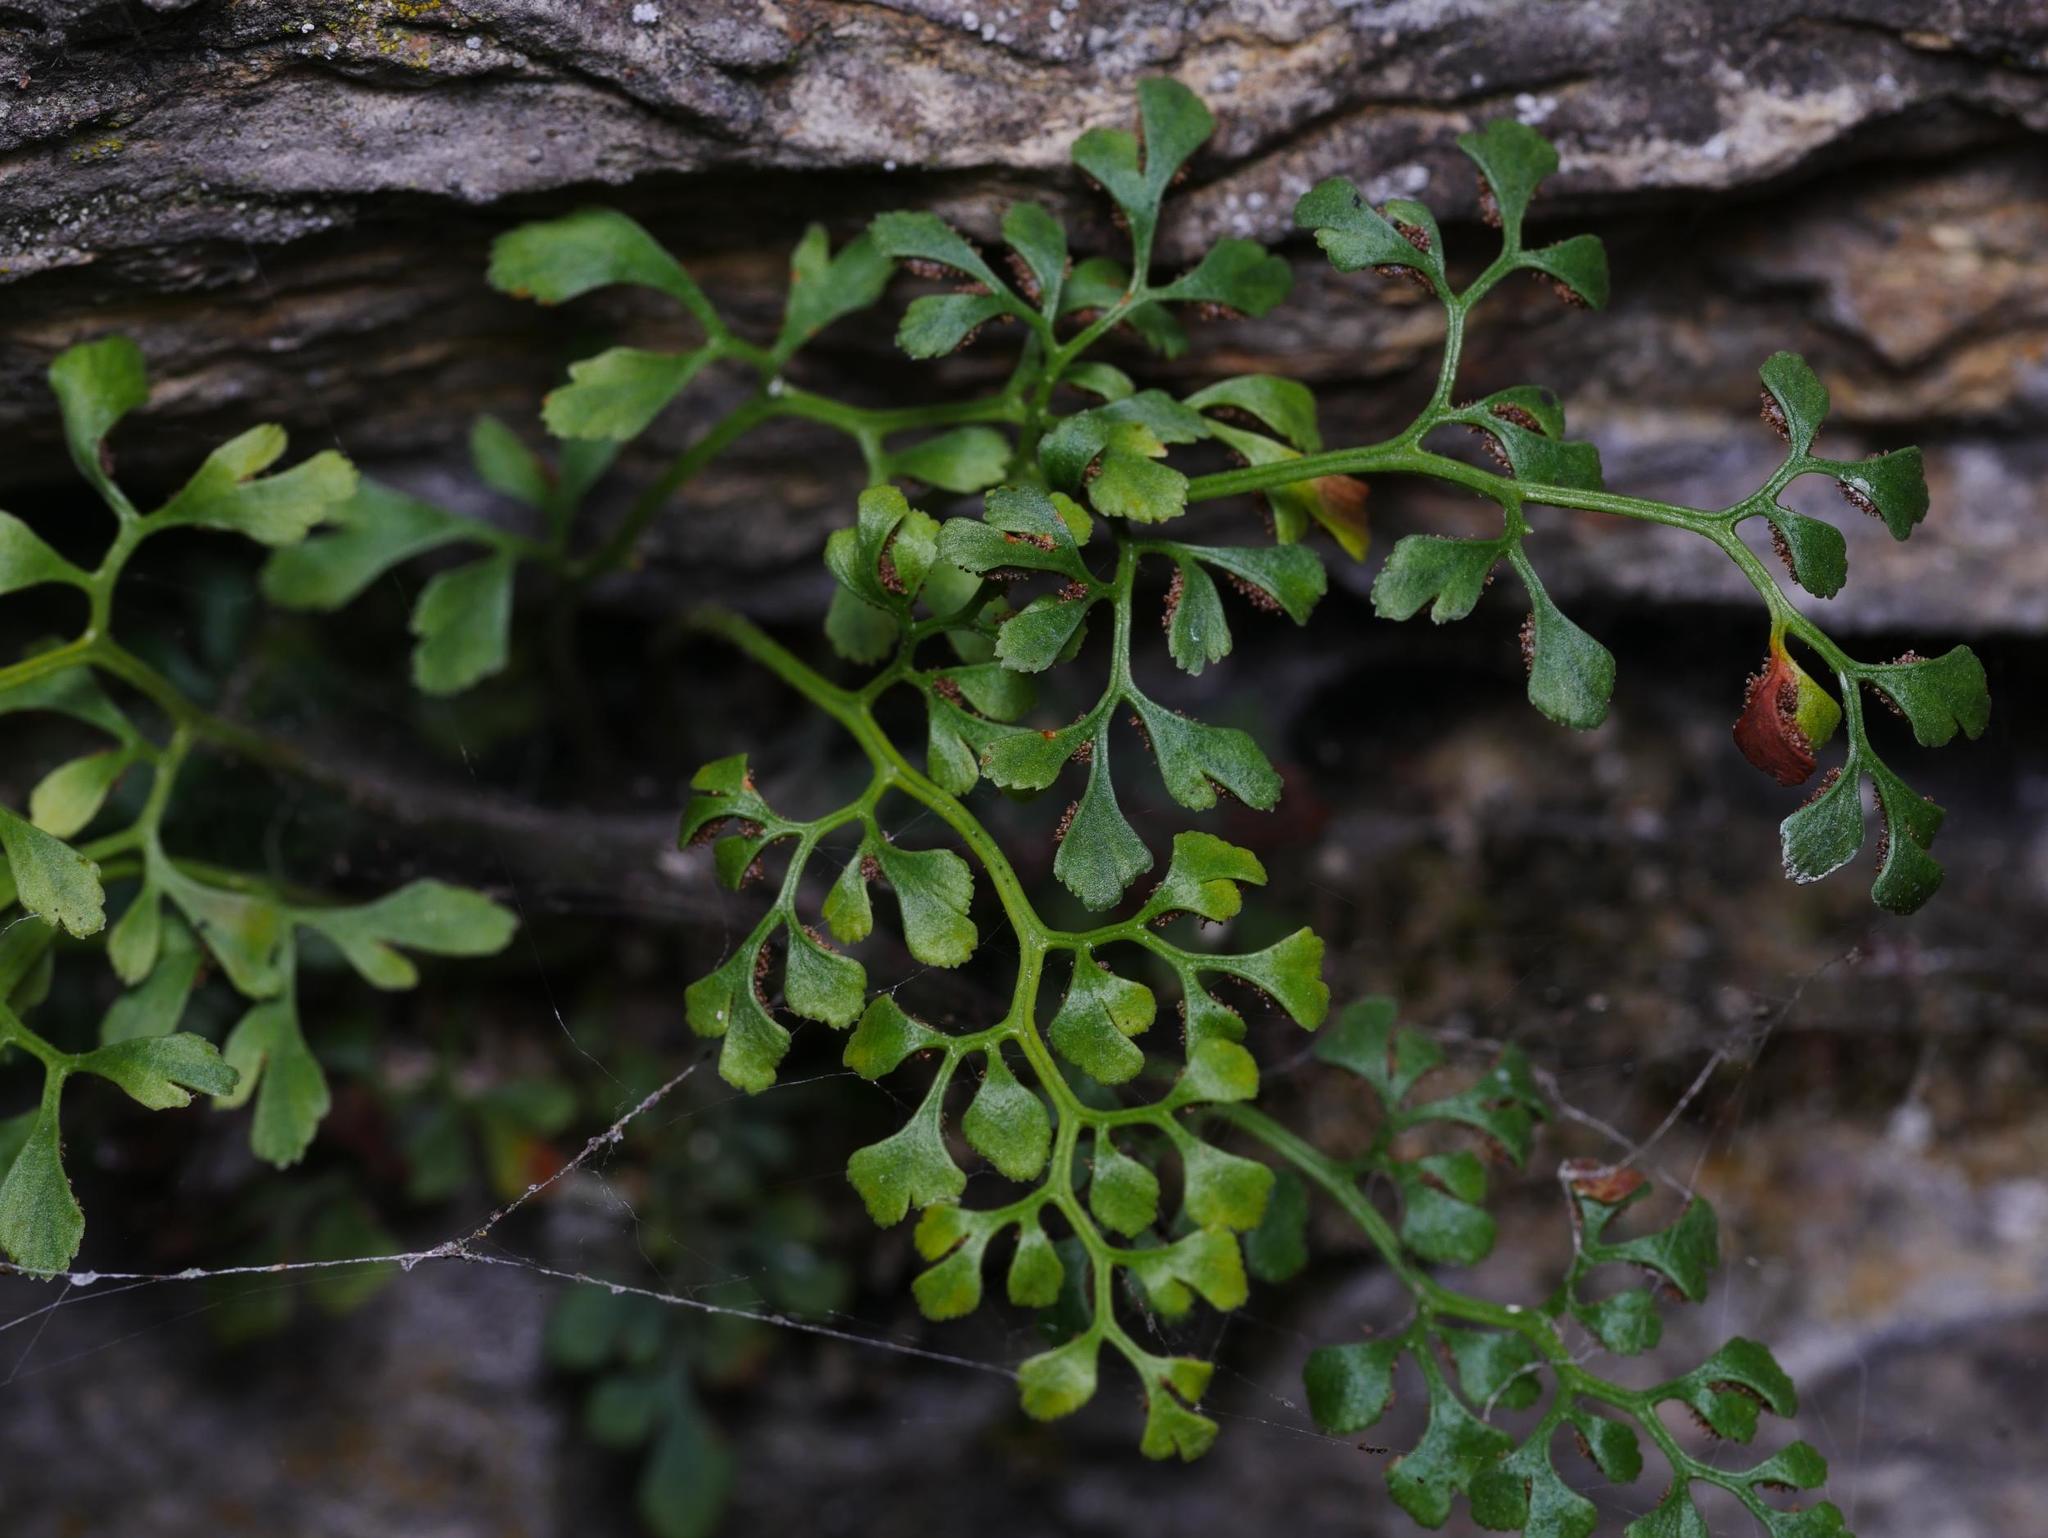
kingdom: Plantae
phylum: Tracheophyta
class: Polypodiopsida
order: Polypodiales
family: Aspleniaceae
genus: Asplenium
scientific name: Asplenium ruta-muraria
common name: Wall-rue
